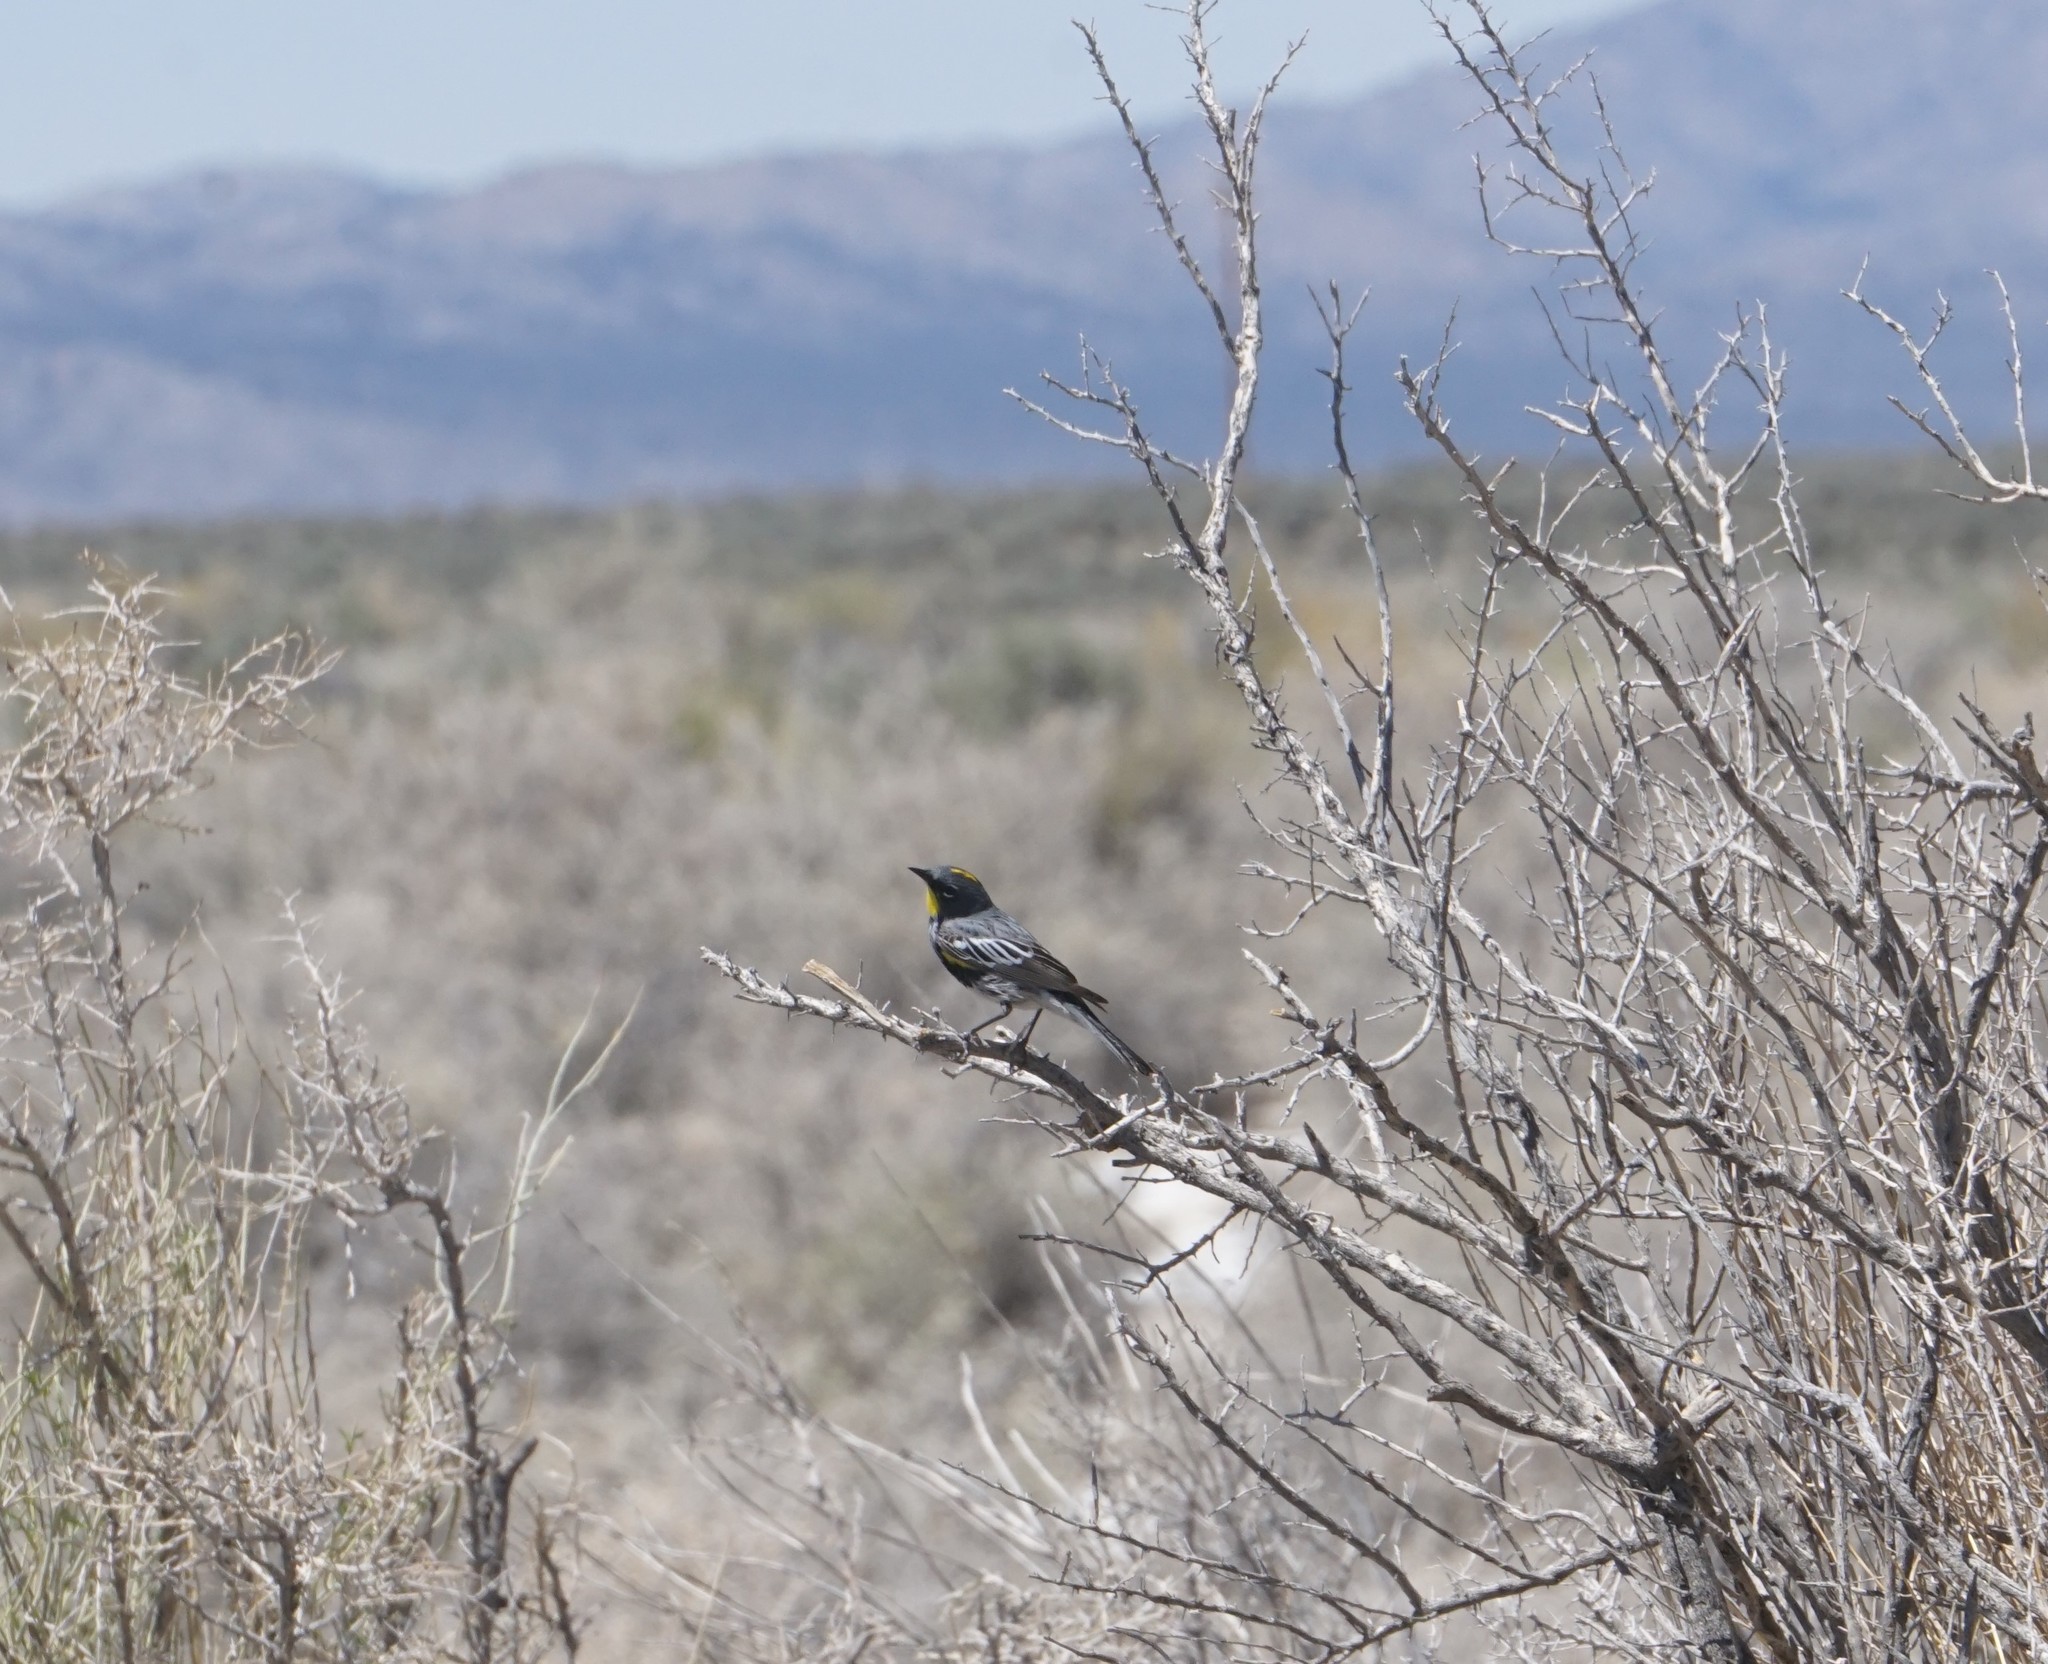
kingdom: Animalia
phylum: Chordata
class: Aves
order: Passeriformes
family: Parulidae
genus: Setophaga
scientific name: Setophaga auduboni
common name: Audubon's warbler
